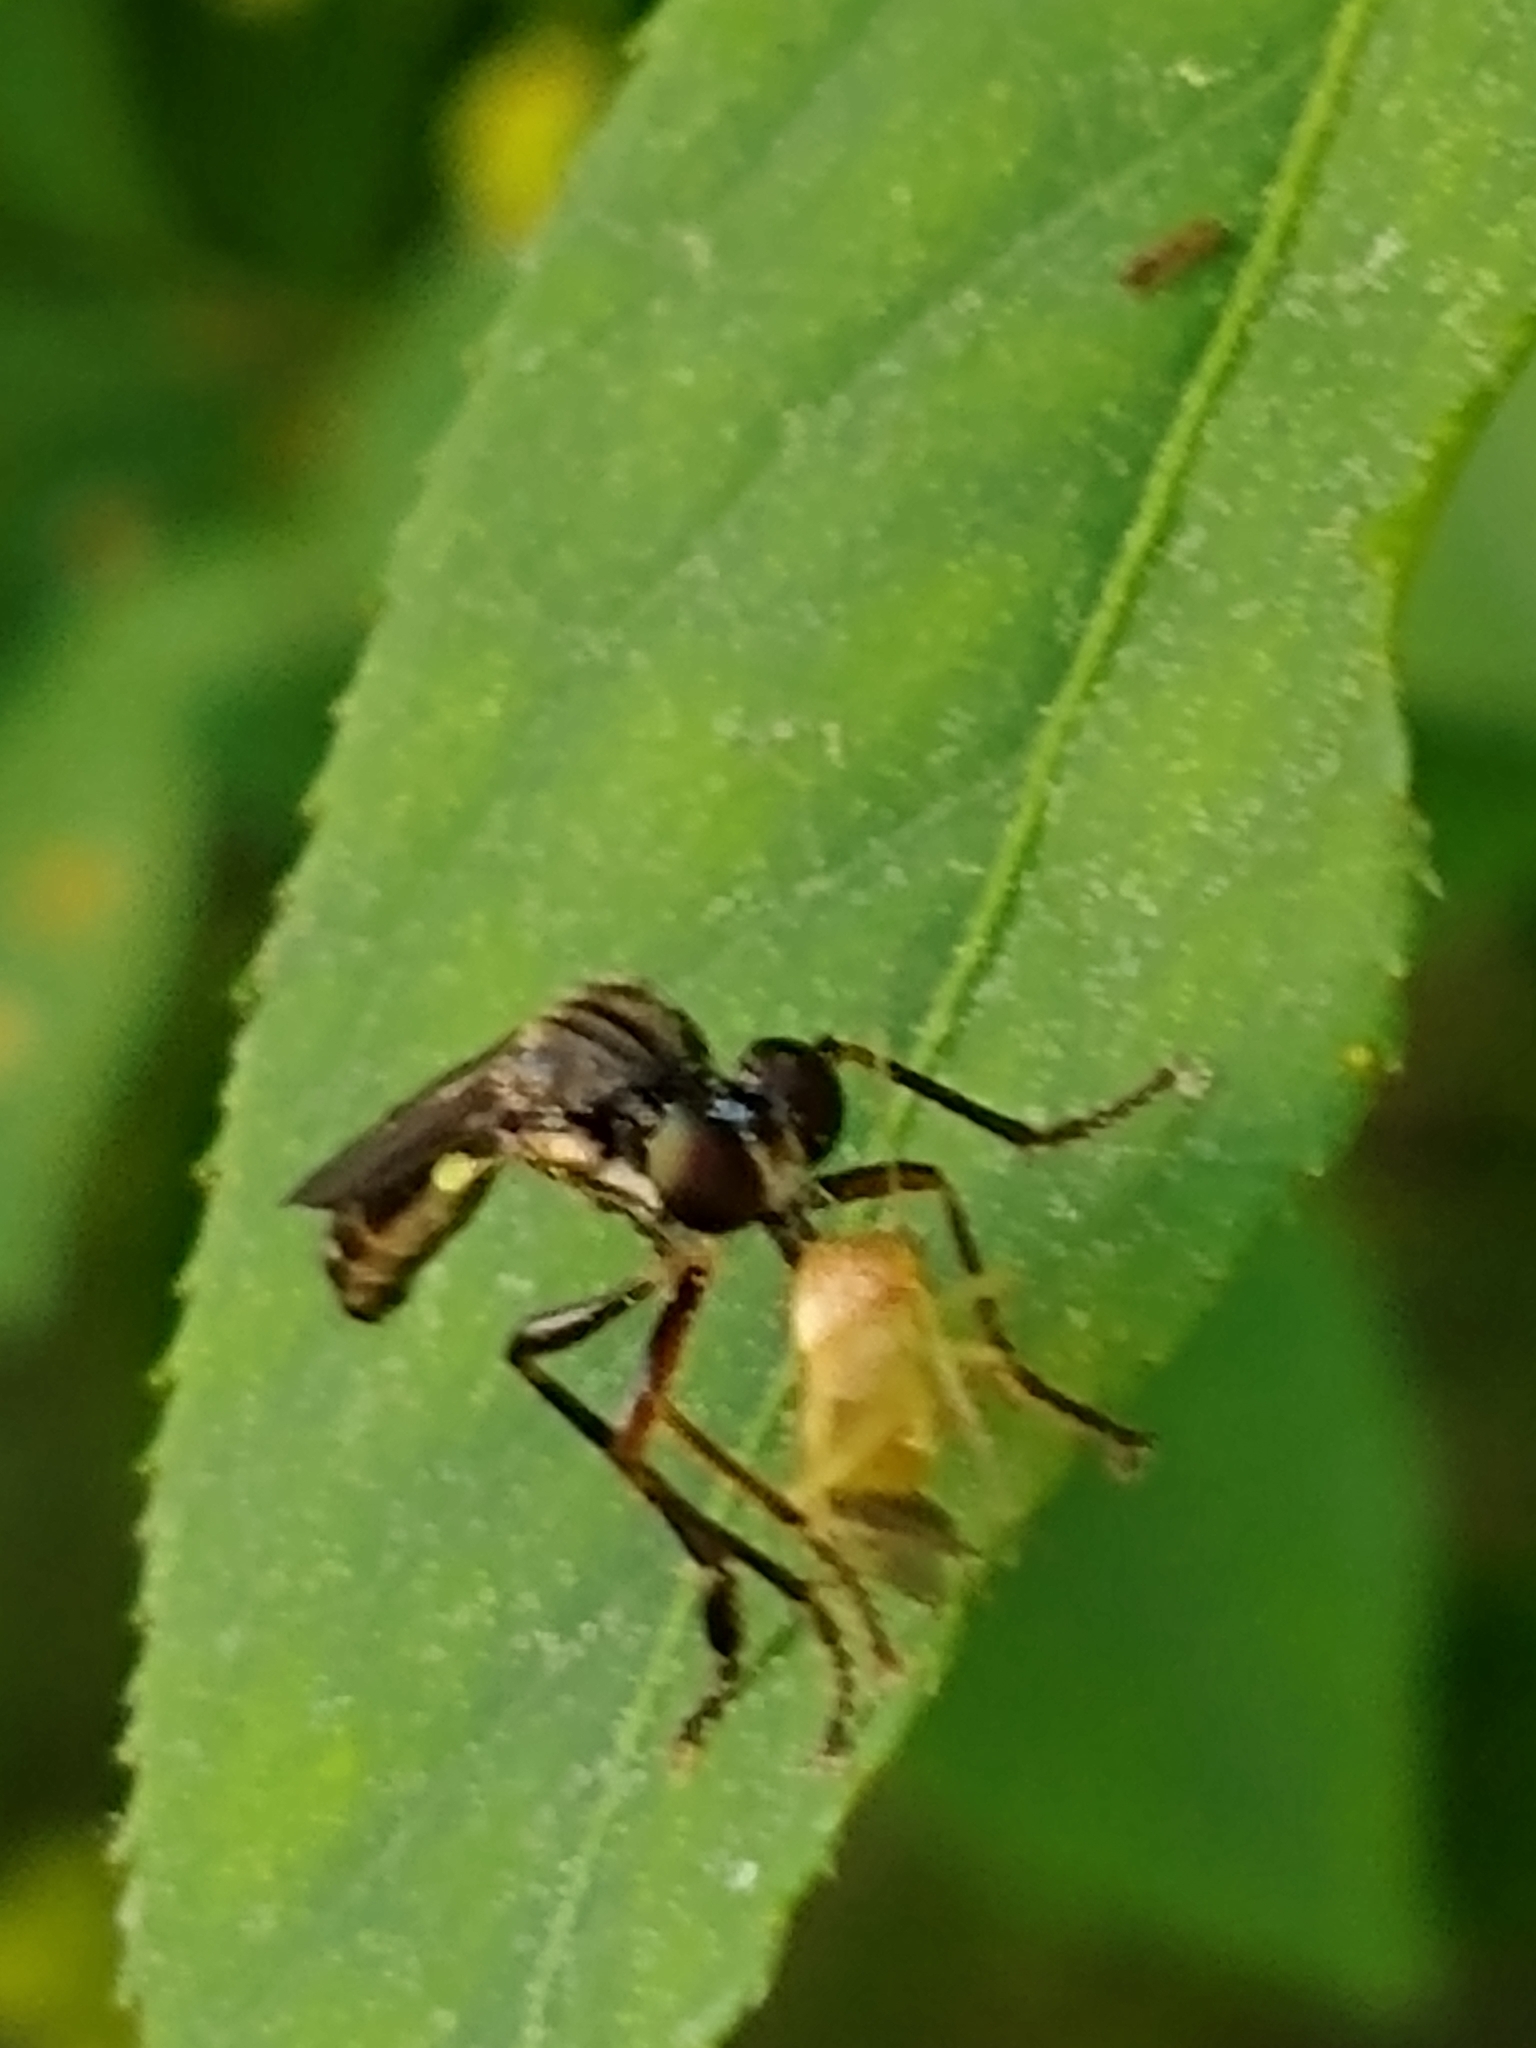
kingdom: Animalia
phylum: Arthropoda
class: Insecta
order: Diptera
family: Asilidae
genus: Dioctria
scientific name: Dioctria hyalipennis
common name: Stripe-legged robberfly
